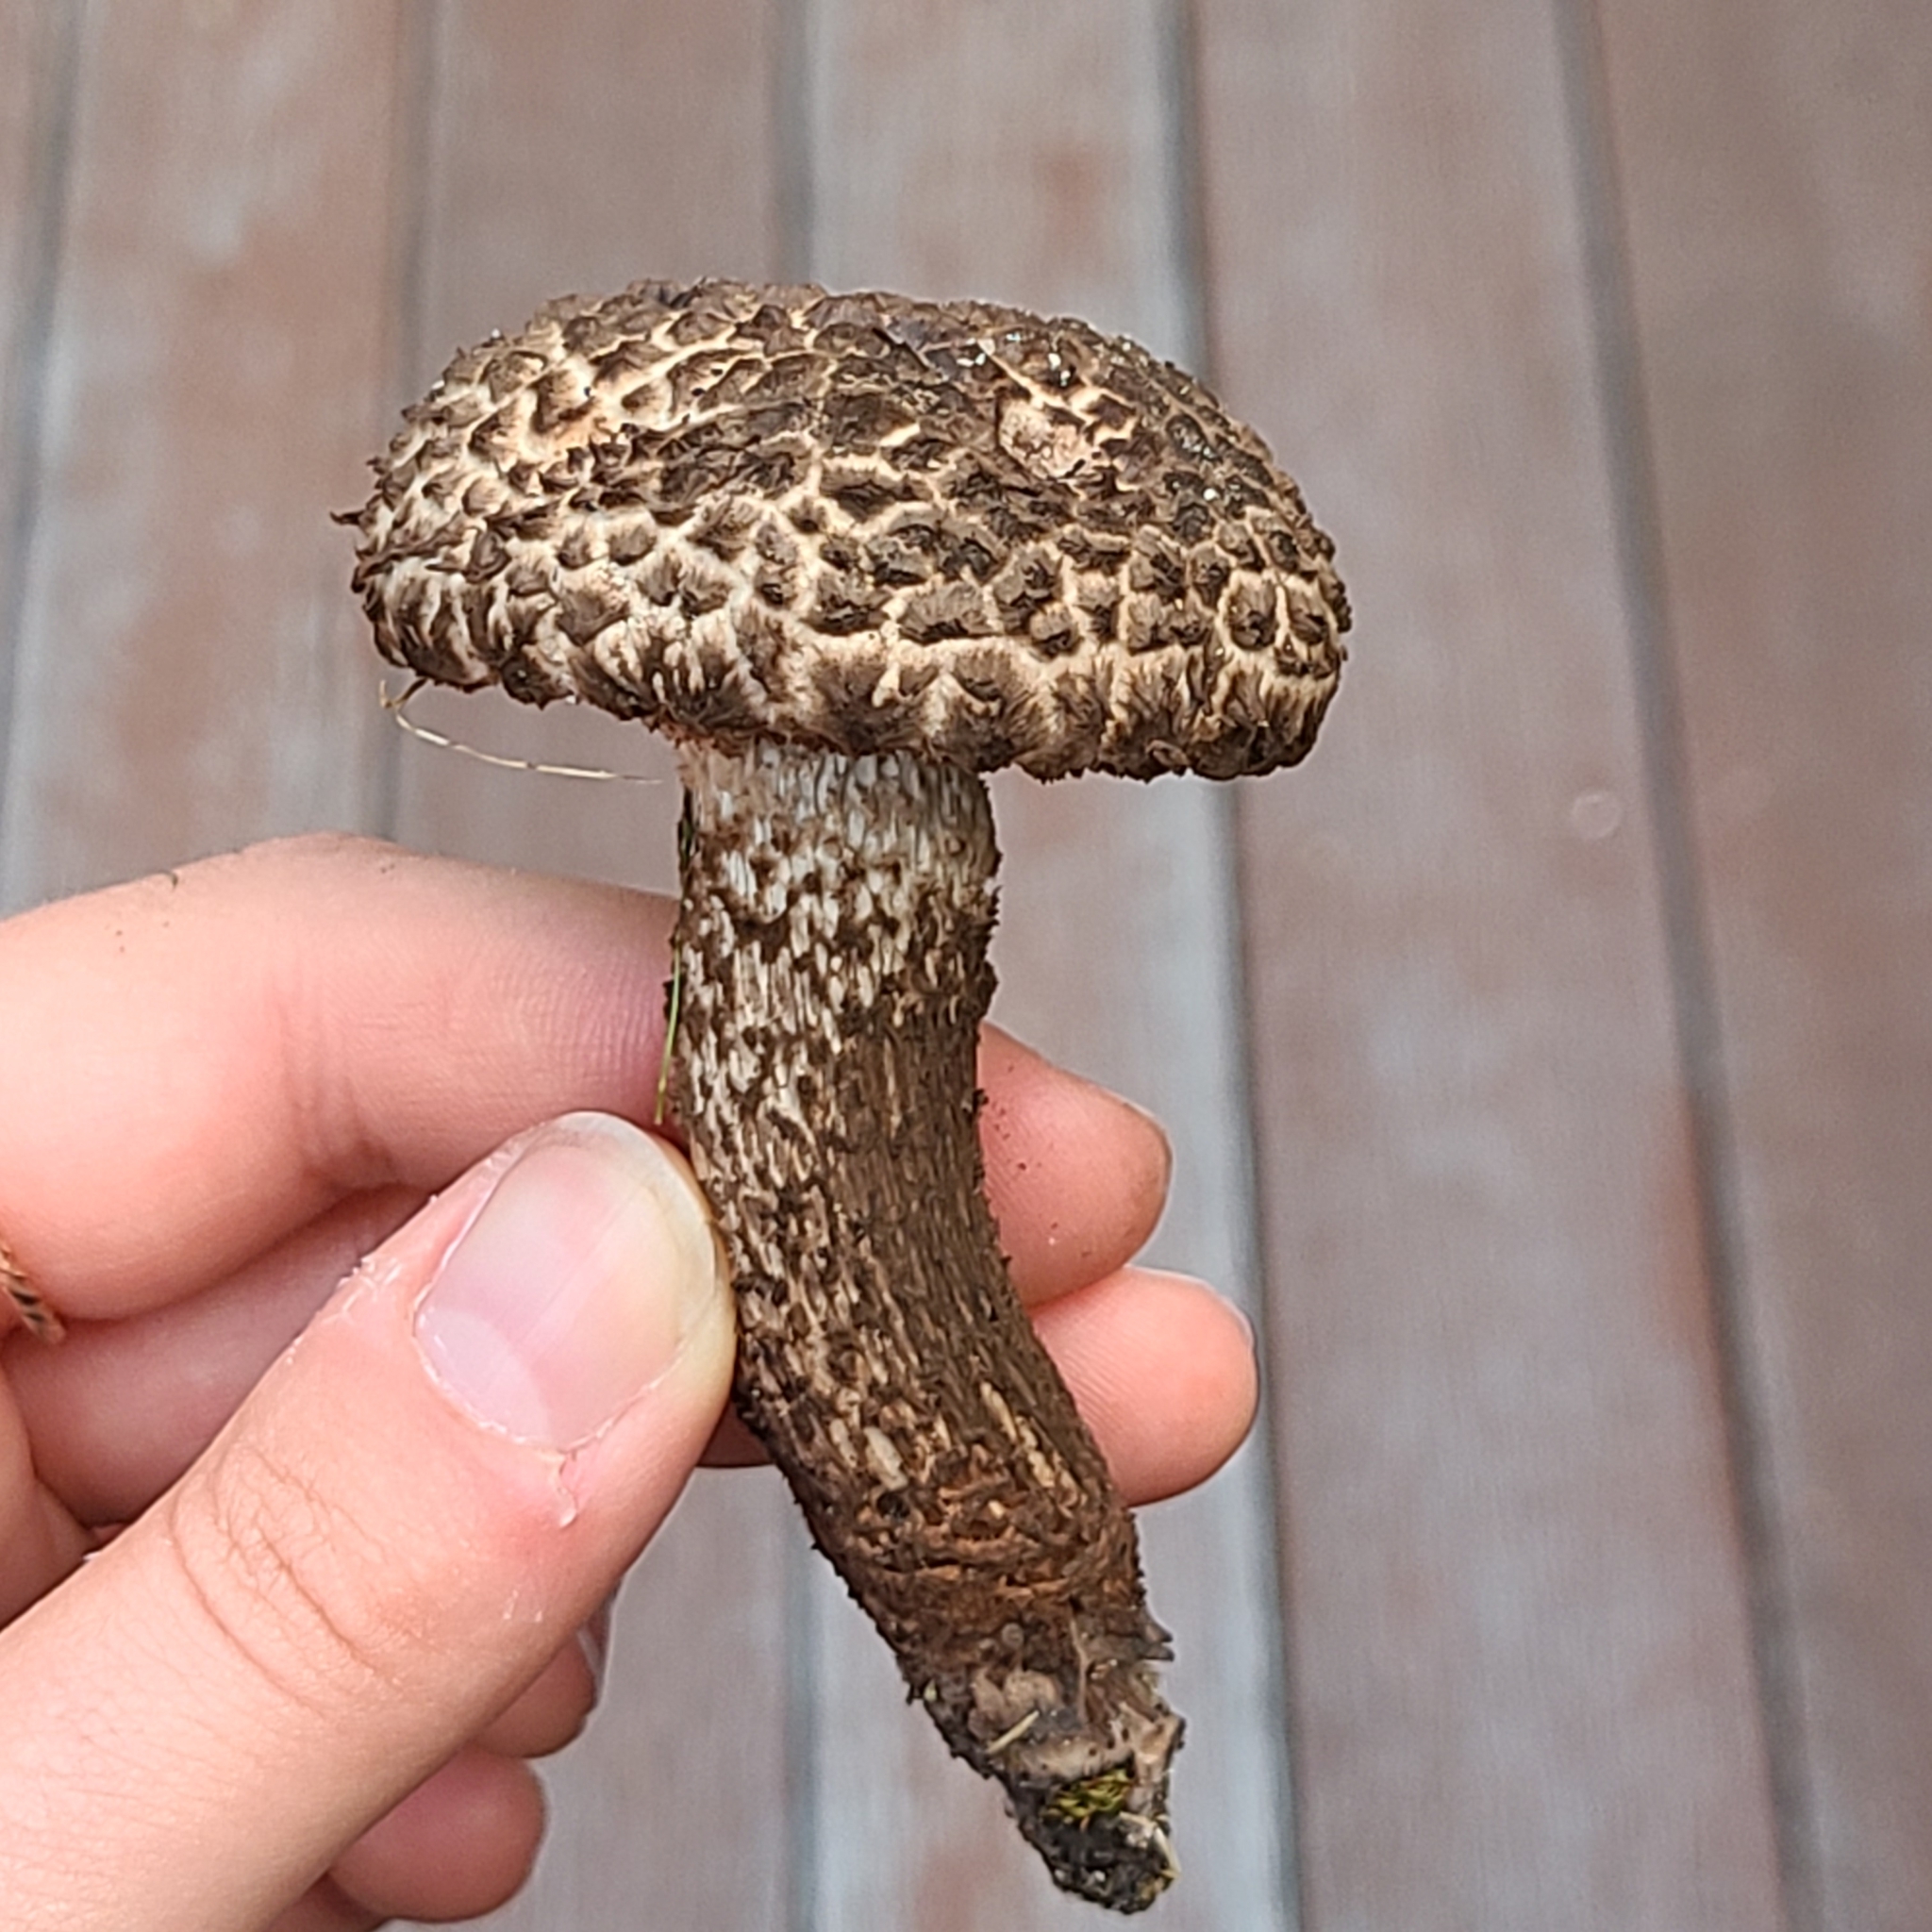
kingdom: Fungi
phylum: Basidiomycota
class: Agaricomycetes
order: Boletales
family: Boletaceae
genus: Strobilomyces
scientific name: Strobilomyces strobilaceus
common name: Old man of the woods
